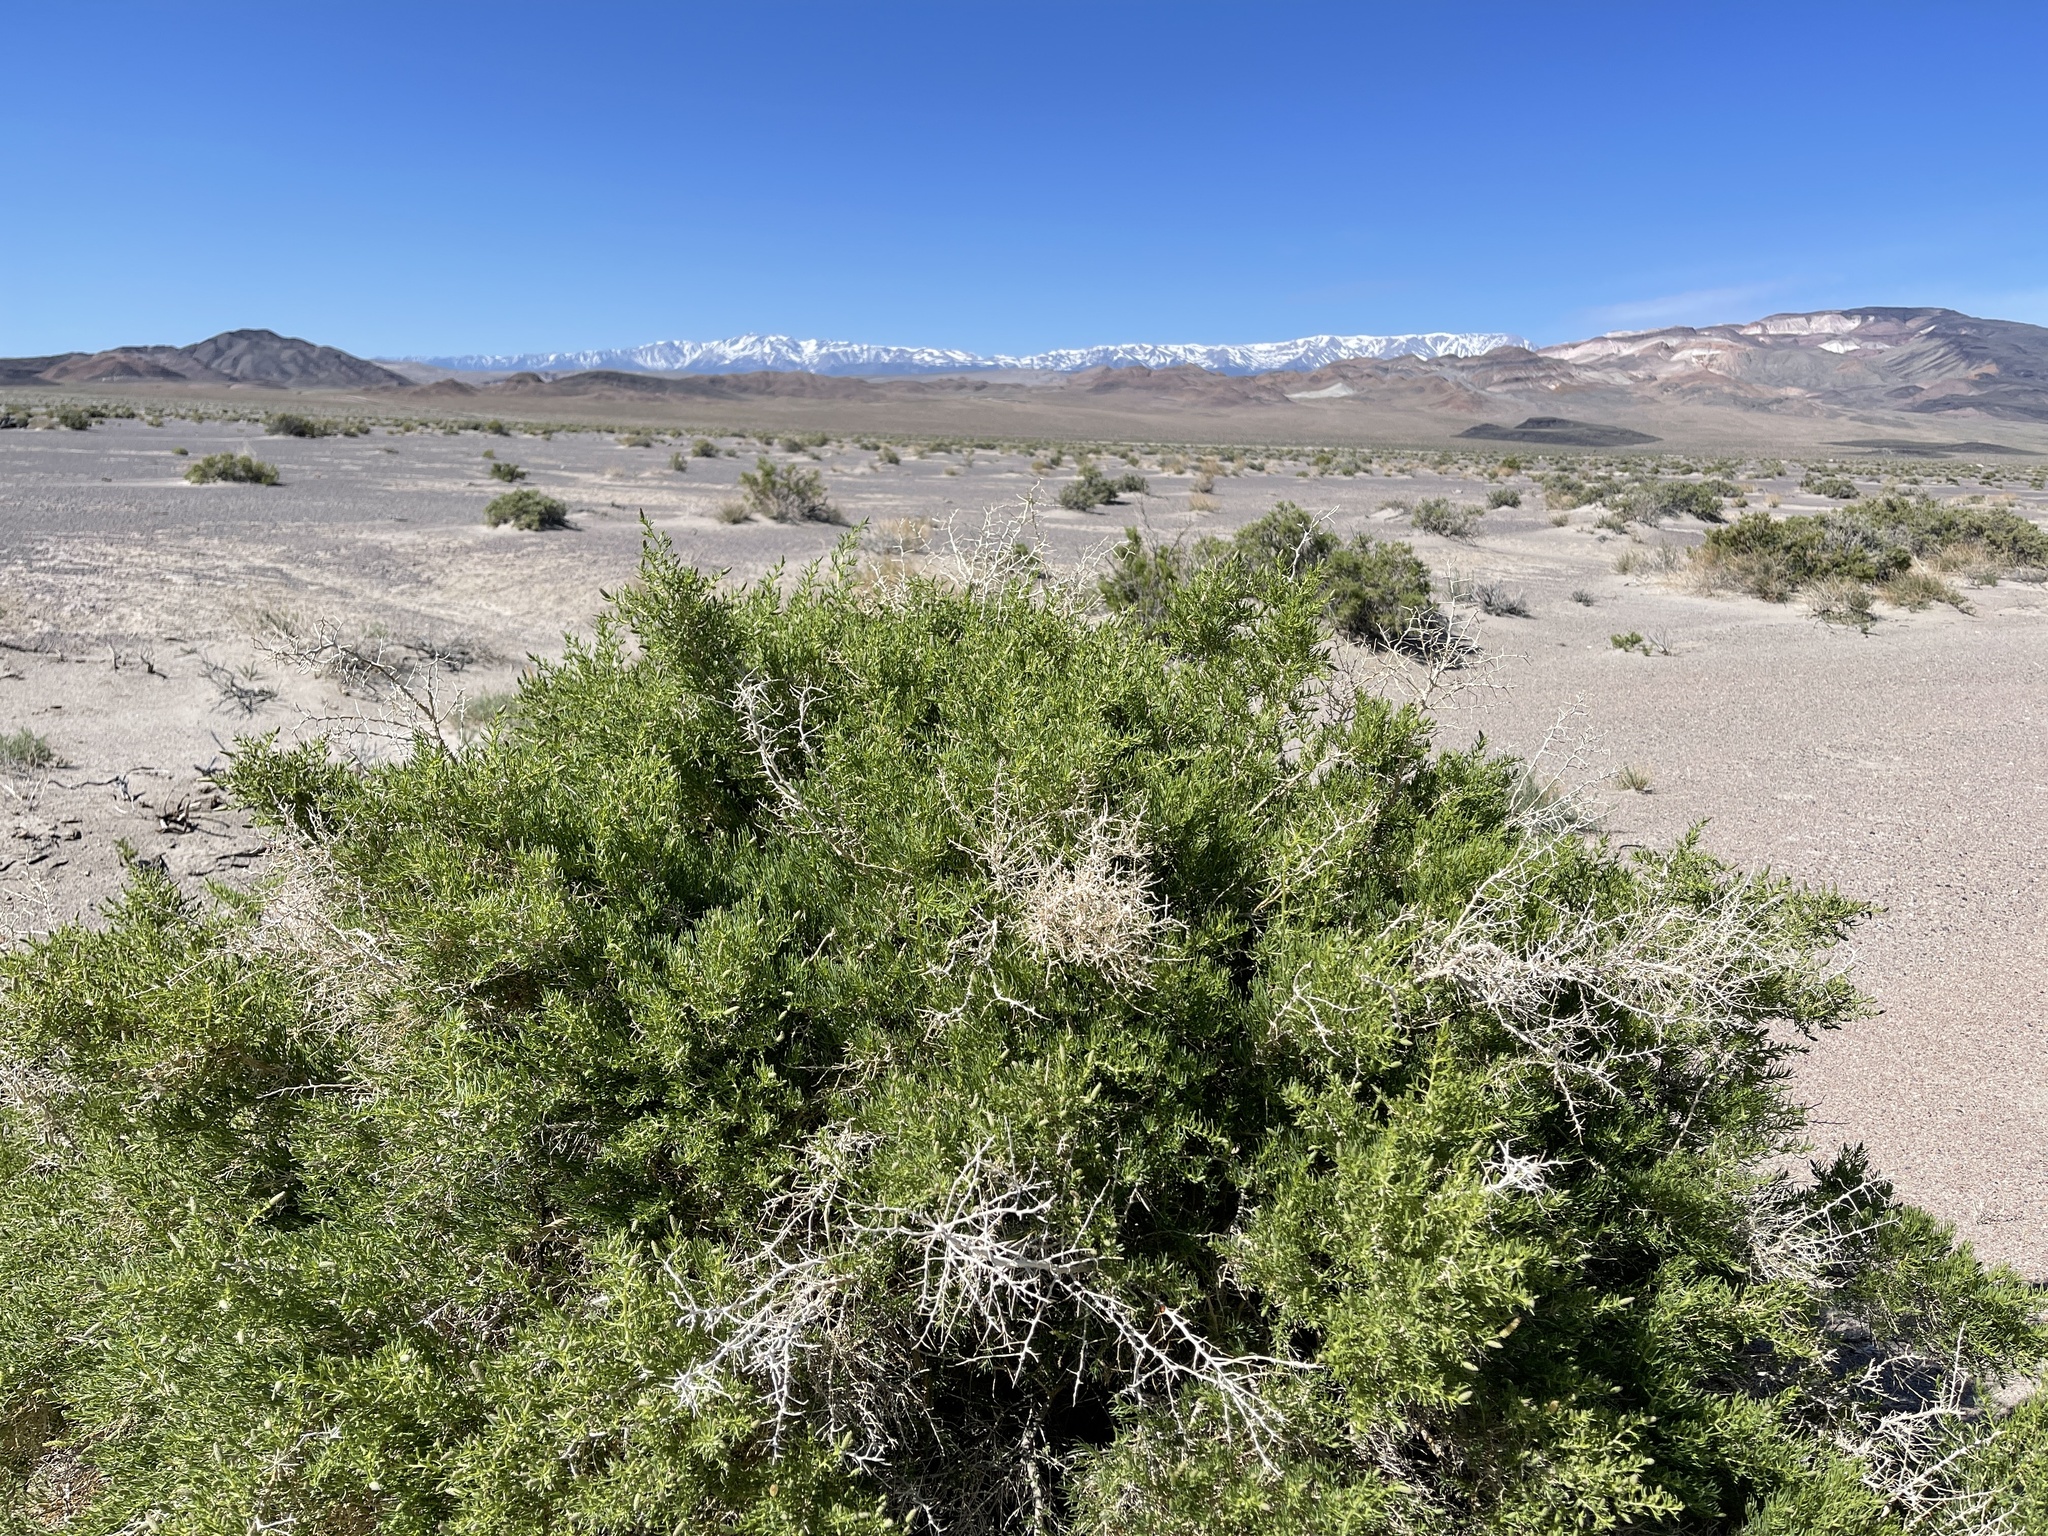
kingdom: Plantae
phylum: Tracheophyta
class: Magnoliopsida
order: Caryophyllales
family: Sarcobataceae
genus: Sarcobatus
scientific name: Sarcobatus vermiculatus
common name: Greasewood
